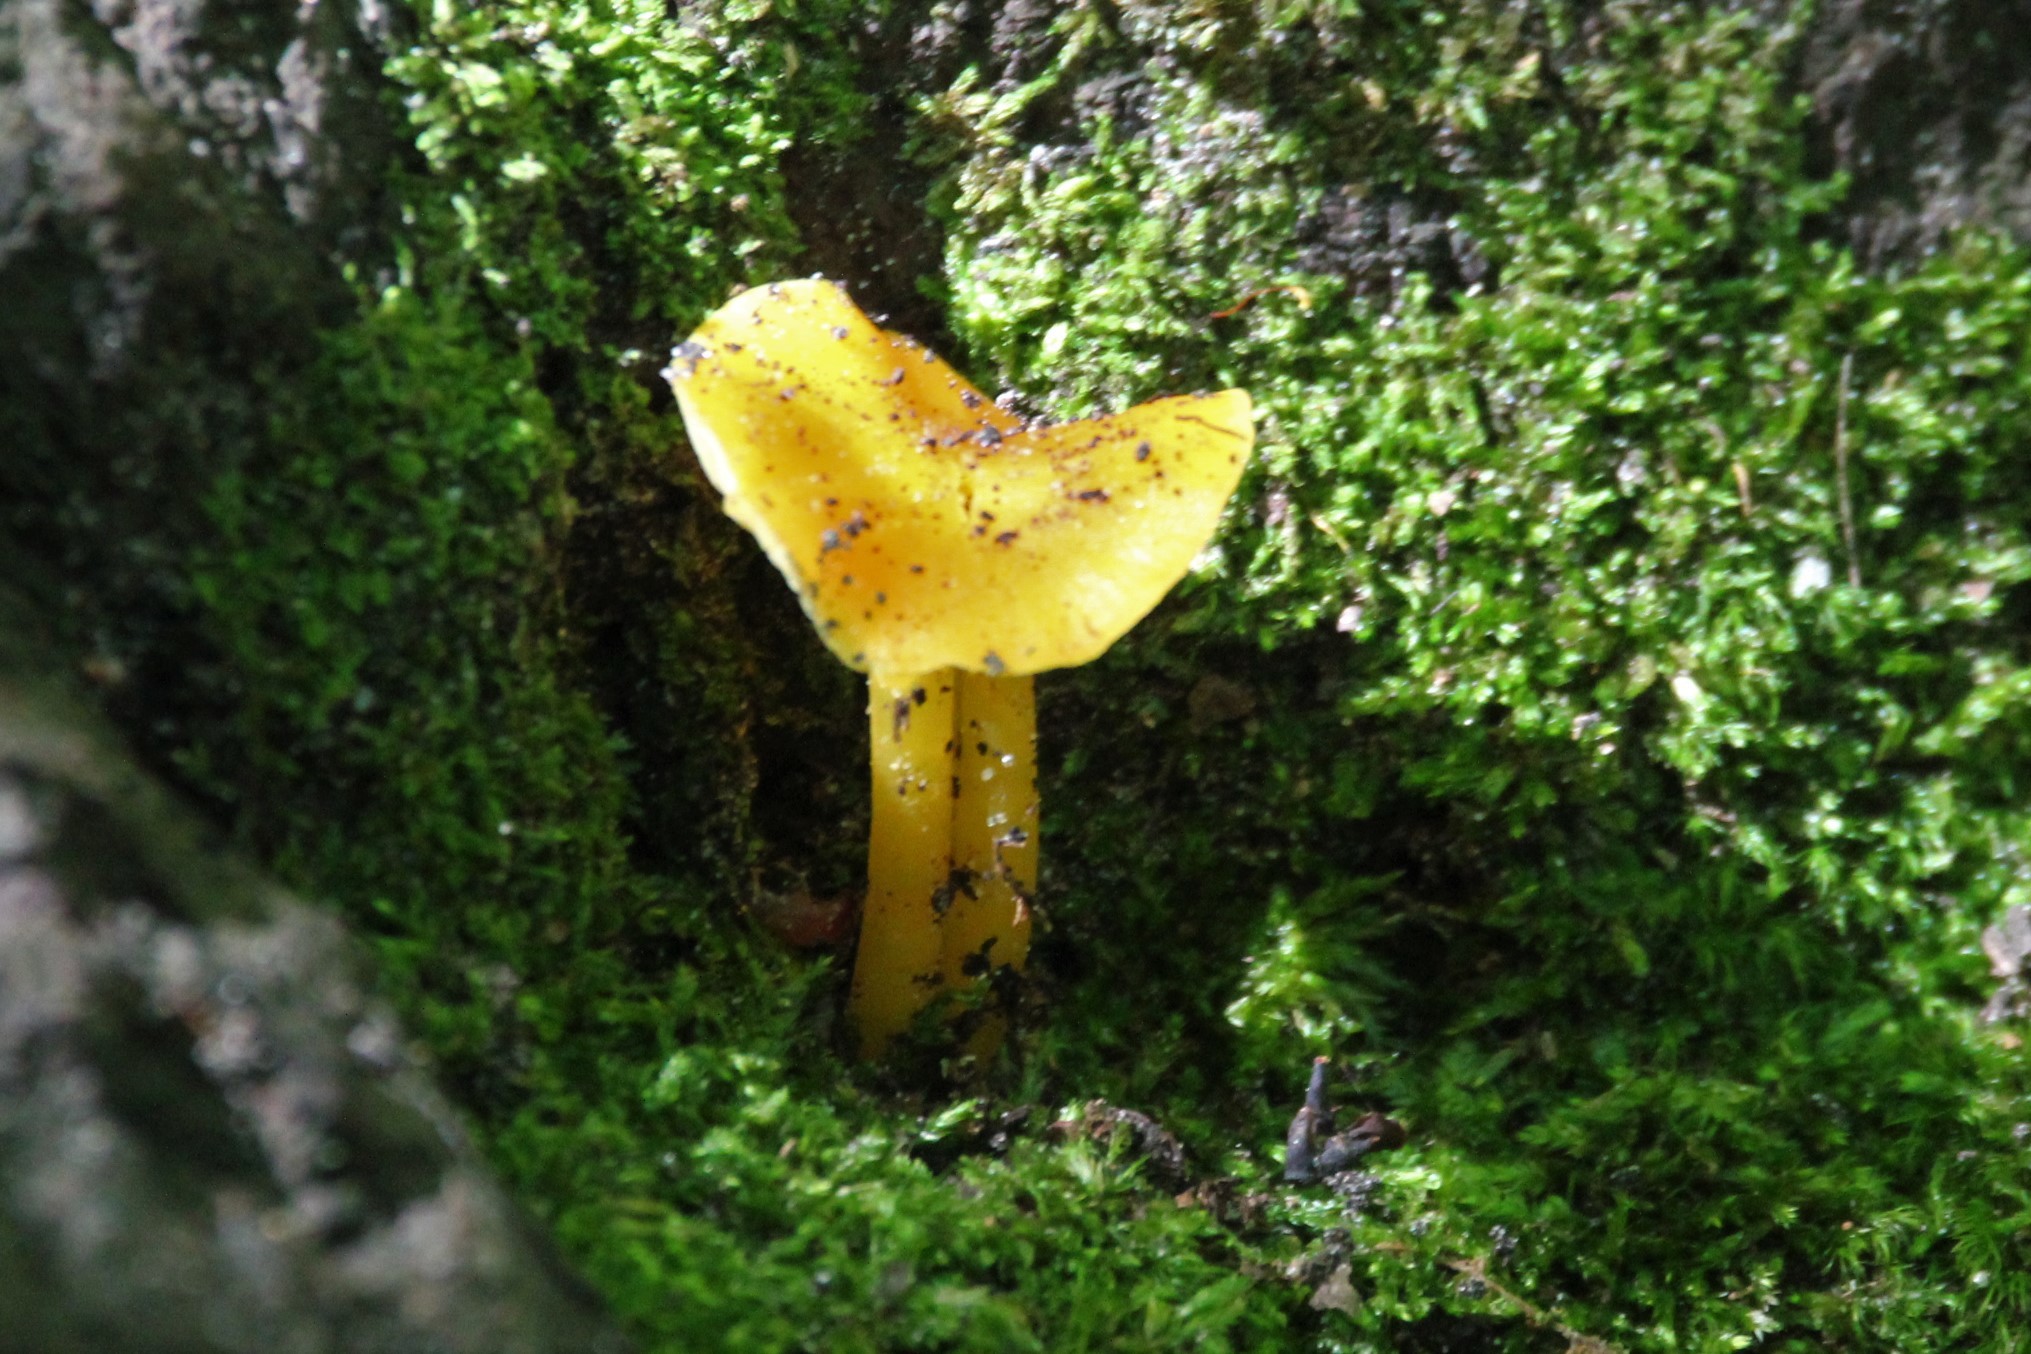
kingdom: Fungi
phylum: Basidiomycota
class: Agaricomycetes
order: Agaricales
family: Hygrophoraceae
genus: Hygrocybe
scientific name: Hygrocybe flavescens
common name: Golden waxy cap
